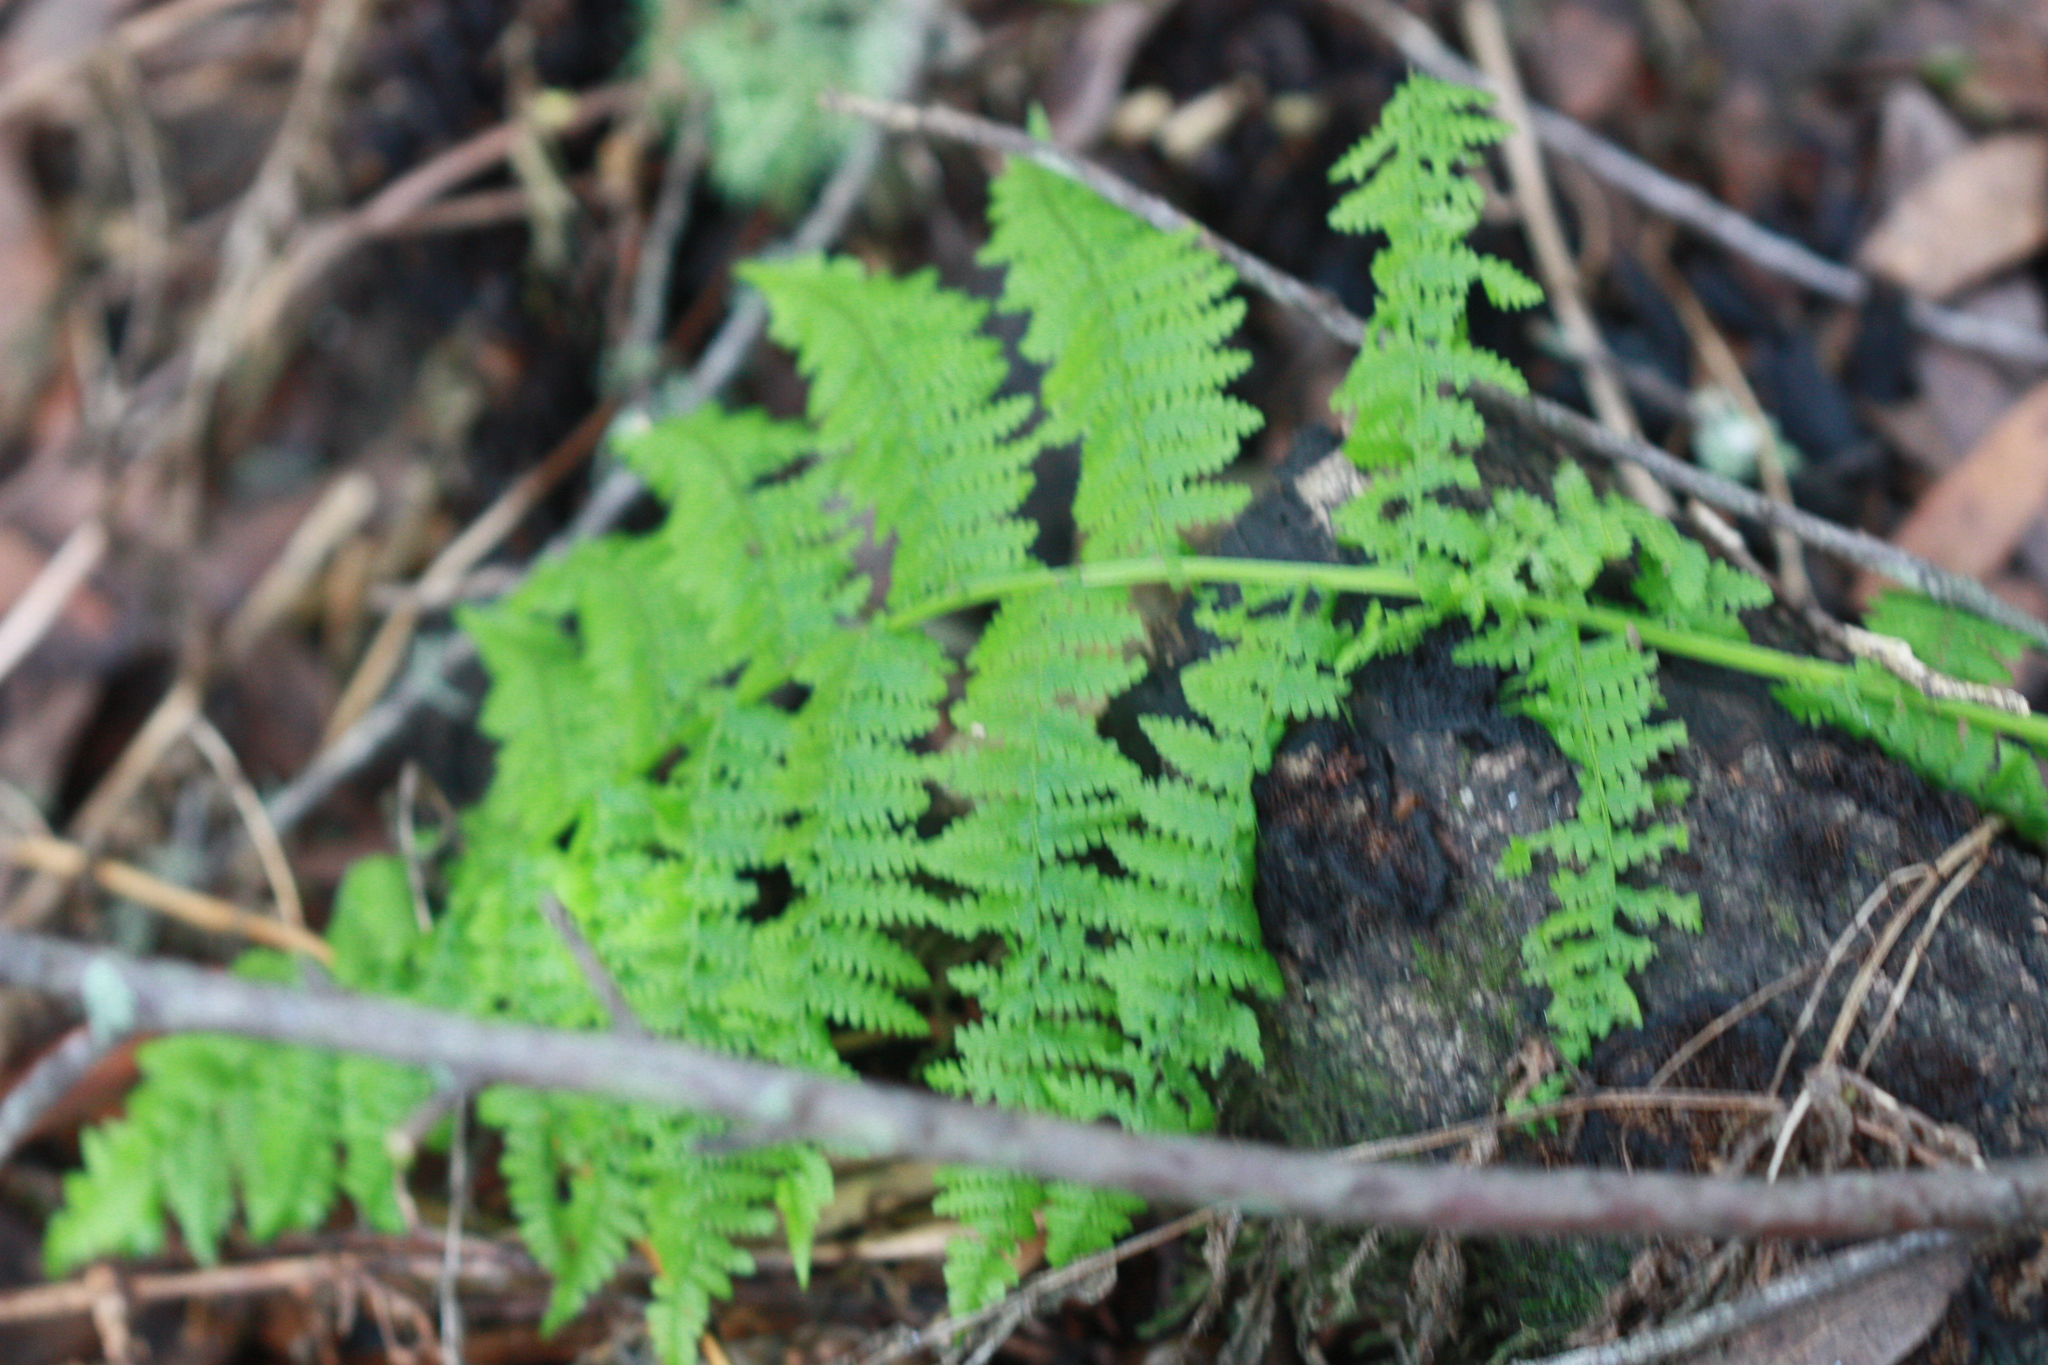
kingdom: Plantae
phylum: Tracheophyta
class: Polypodiopsida
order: Polypodiales
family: Athyriaceae
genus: Athyrium
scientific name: Athyrium filix-femina
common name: Lady fern
